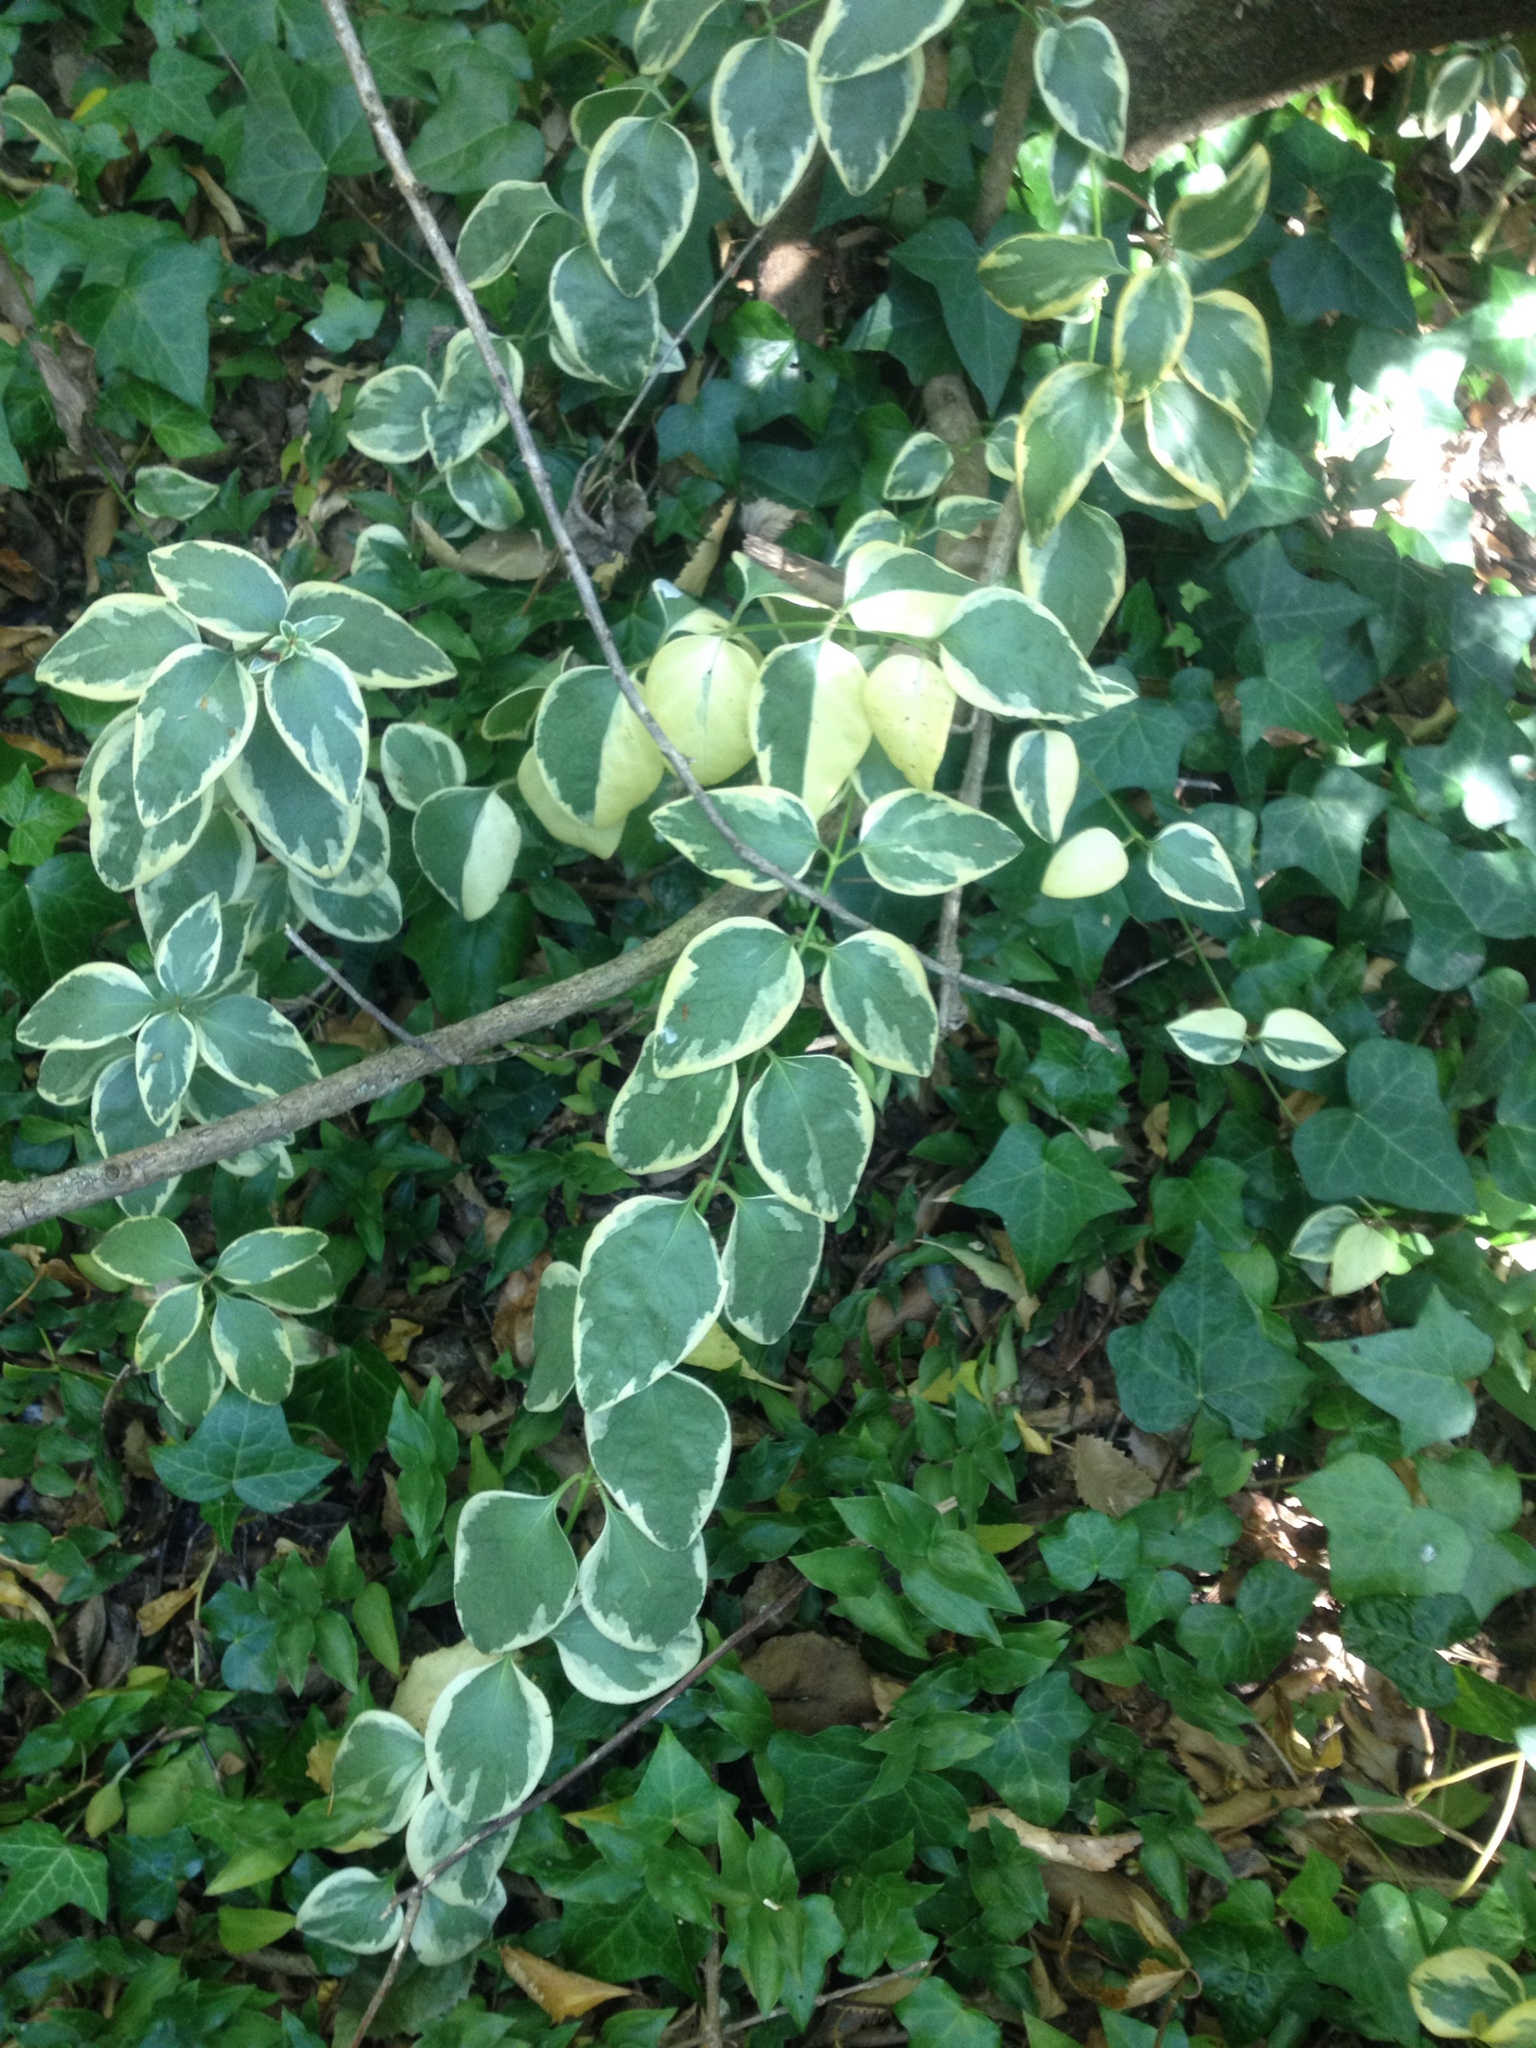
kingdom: Plantae
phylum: Tracheophyta
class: Magnoliopsida
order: Gentianales
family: Apocynaceae
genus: Vinca
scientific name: Vinca major
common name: Greater periwinkle
